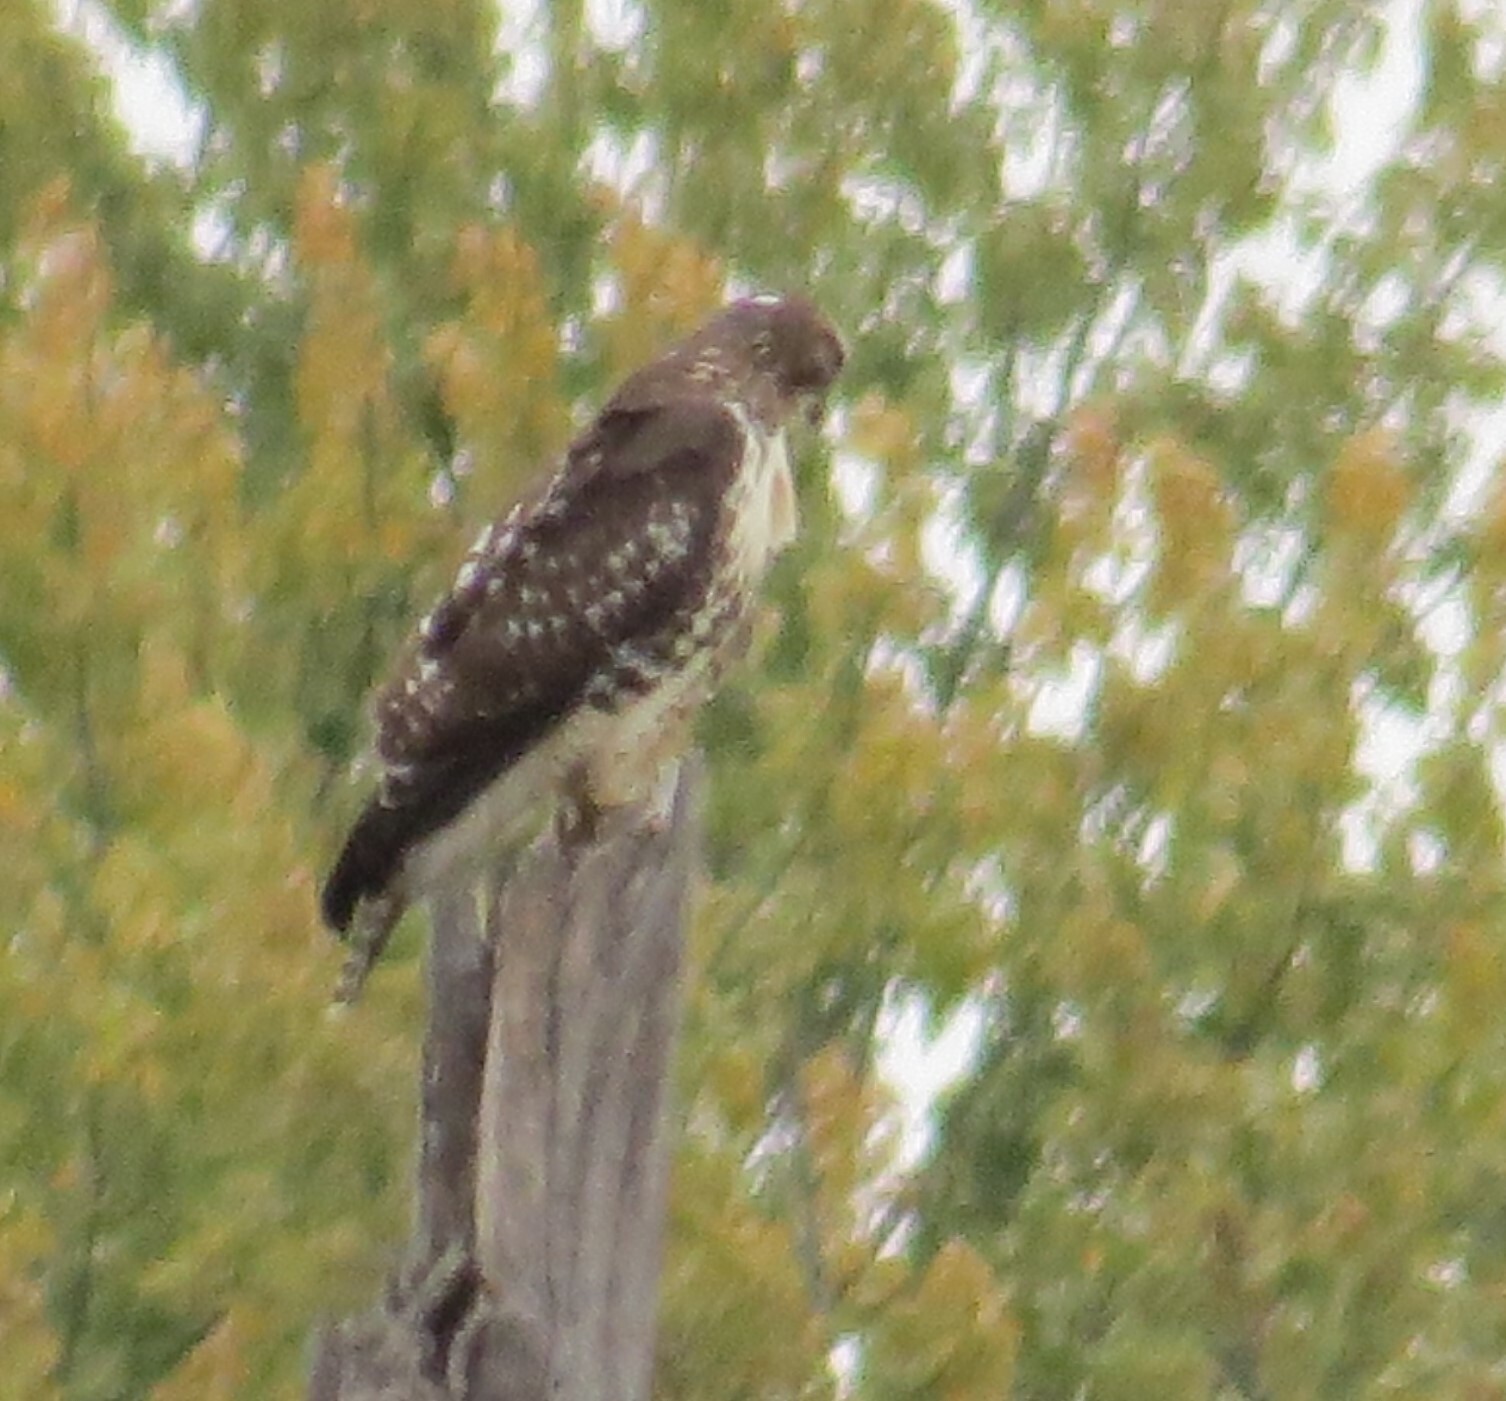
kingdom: Animalia
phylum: Chordata
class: Aves
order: Accipitriformes
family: Accipitridae
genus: Buteo
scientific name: Buteo jamaicensis
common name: Red-tailed hawk
